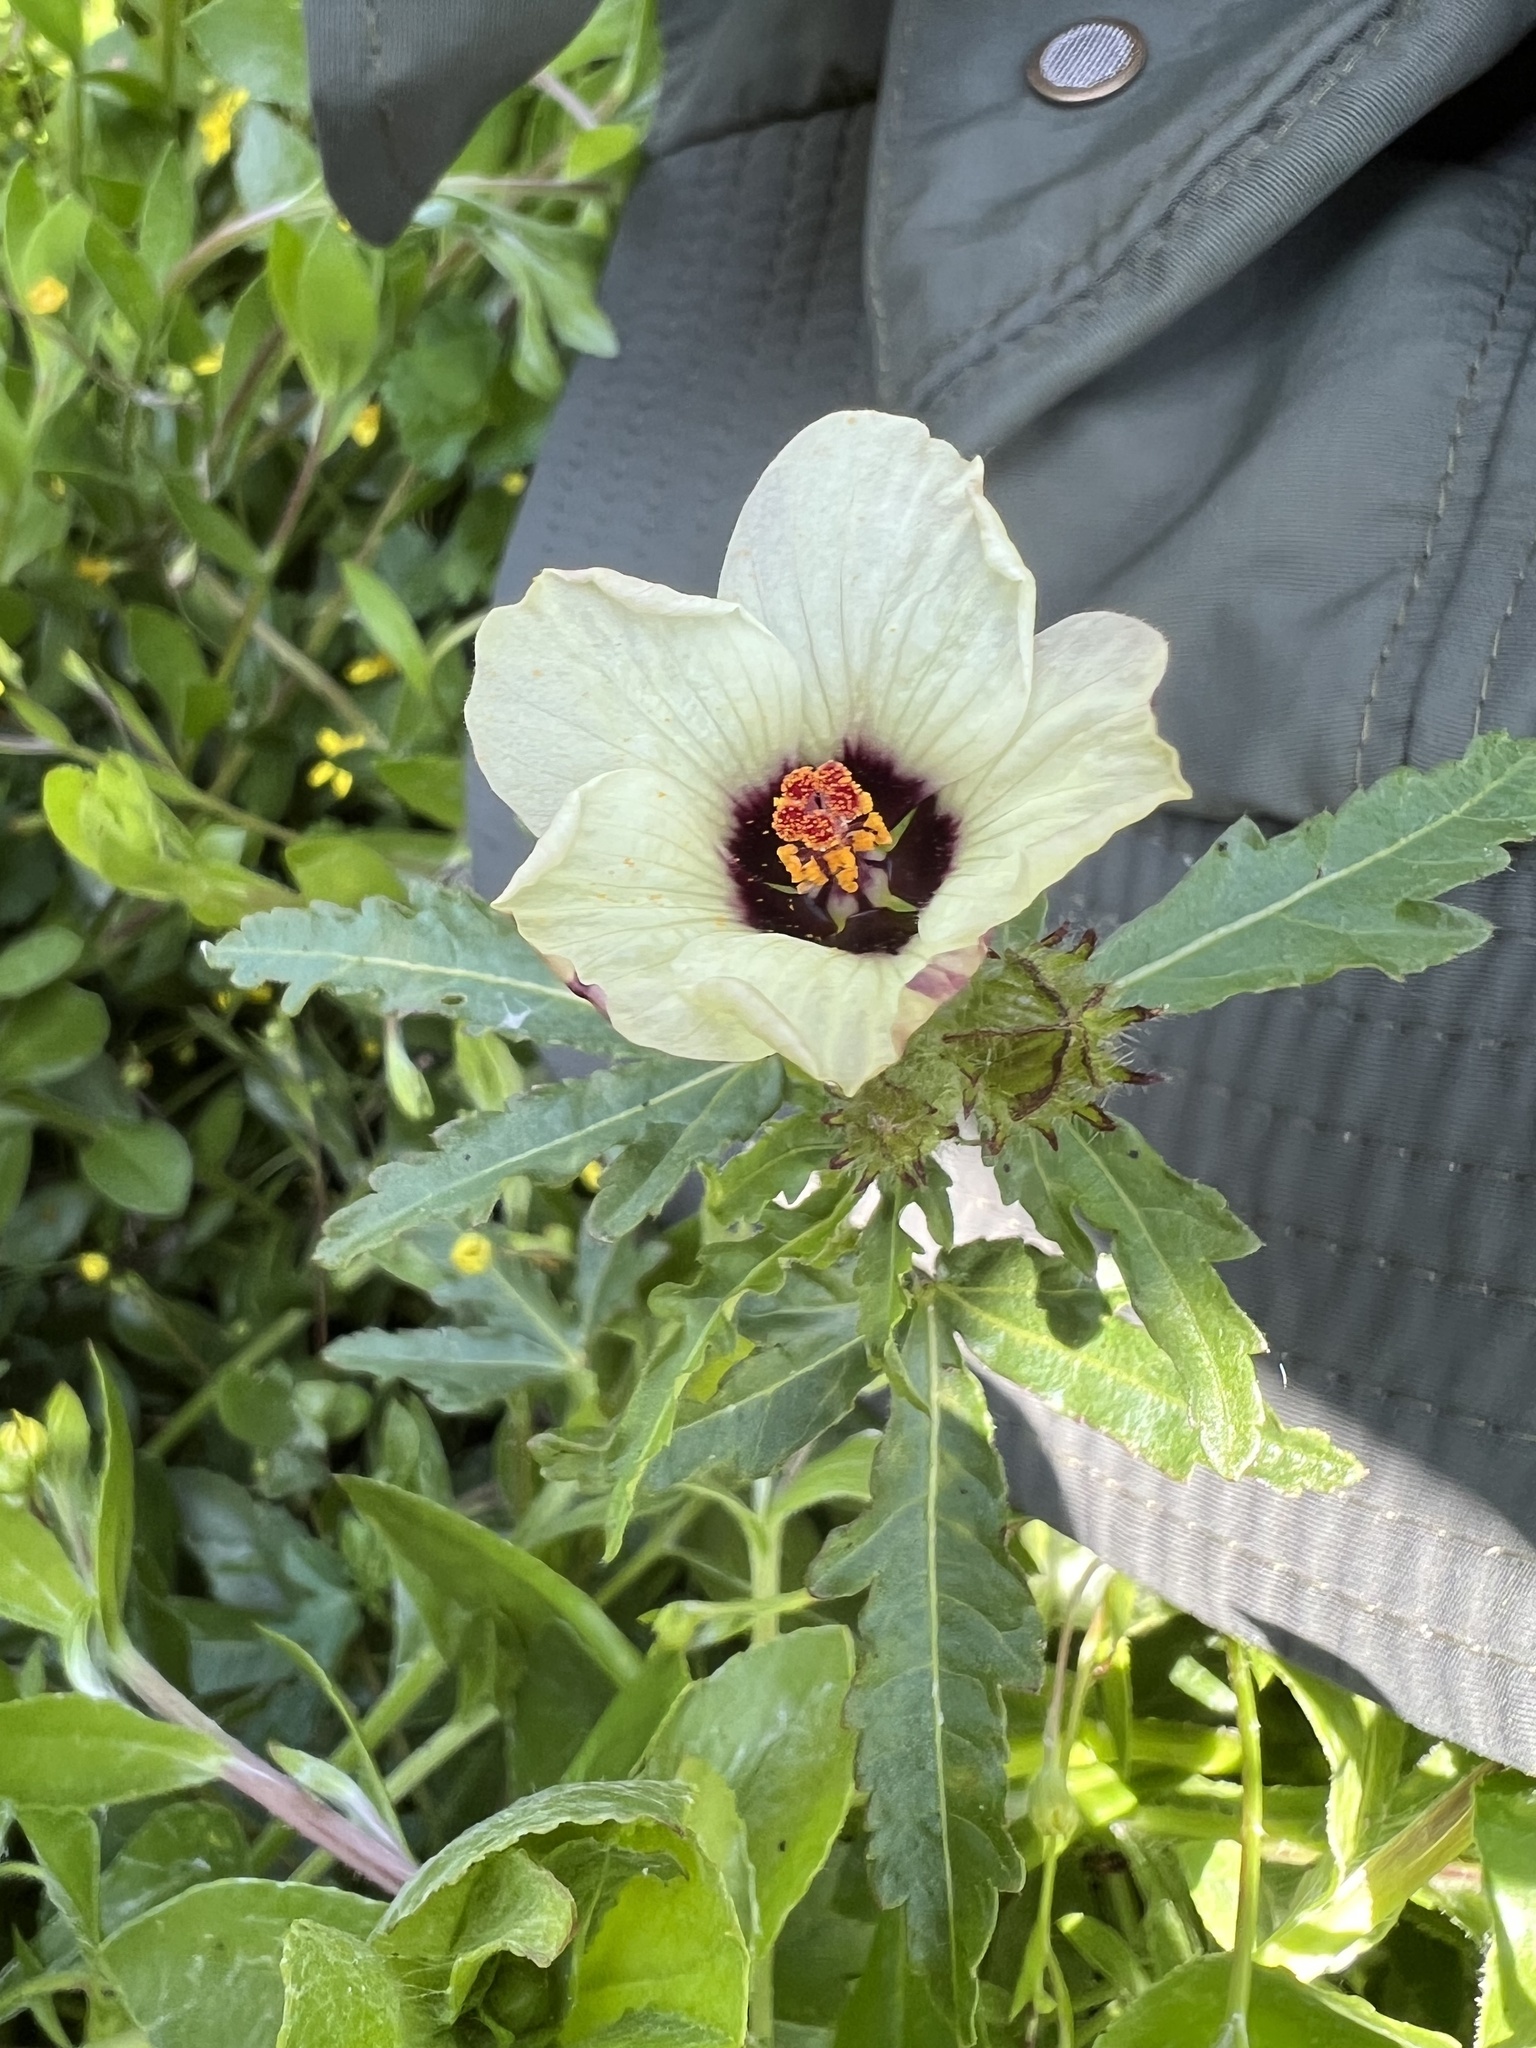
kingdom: Plantae
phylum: Tracheophyta
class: Magnoliopsida
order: Malvales
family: Malvaceae
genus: Hibiscus
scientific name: Hibiscus trionum
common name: Bladder ketmia
